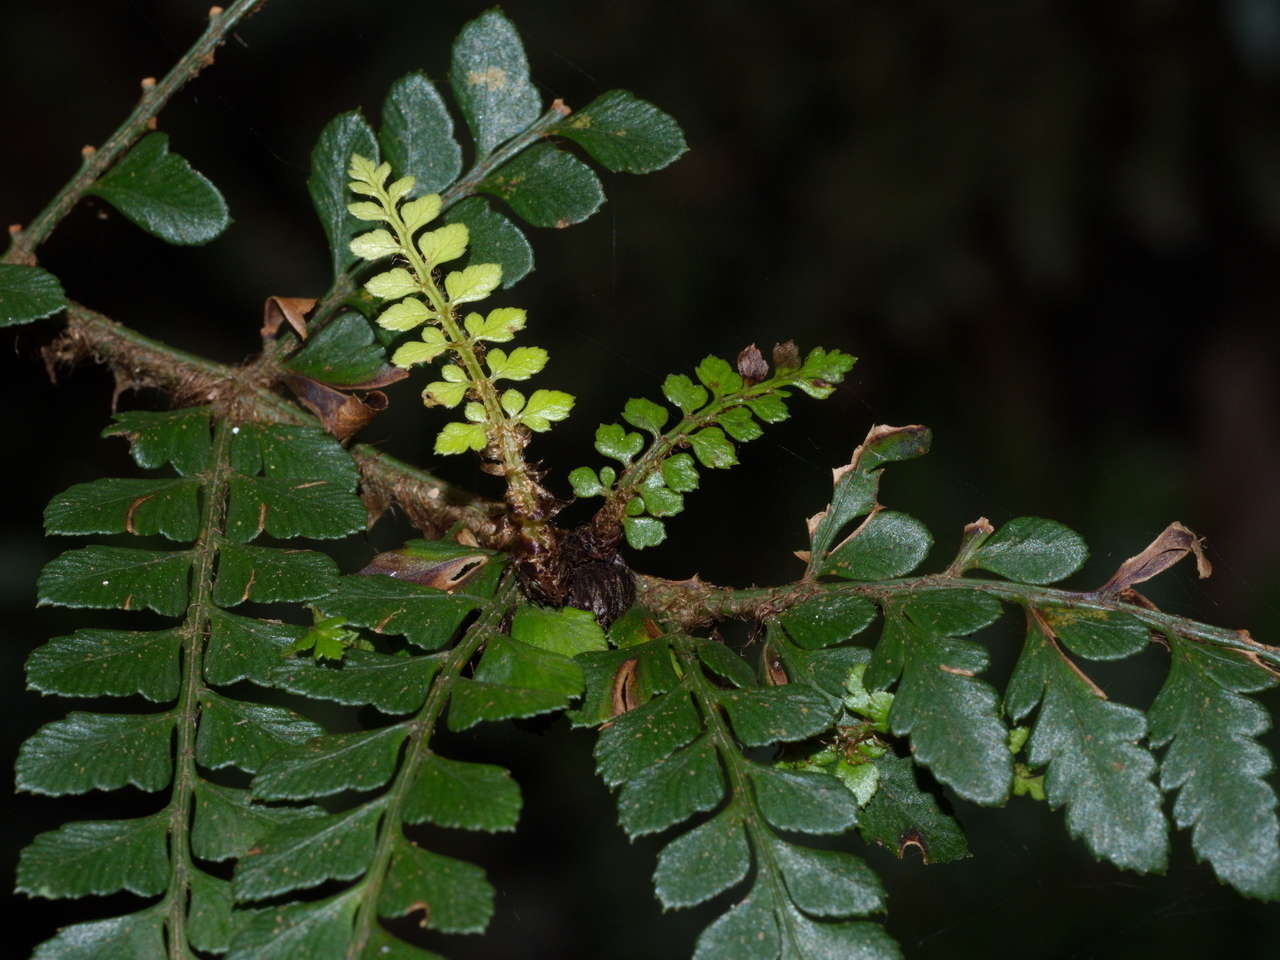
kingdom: Plantae
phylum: Tracheophyta
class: Polypodiopsida
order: Polypodiales
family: Dryopteridaceae
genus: Polystichum
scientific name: Polystichum proliferum
